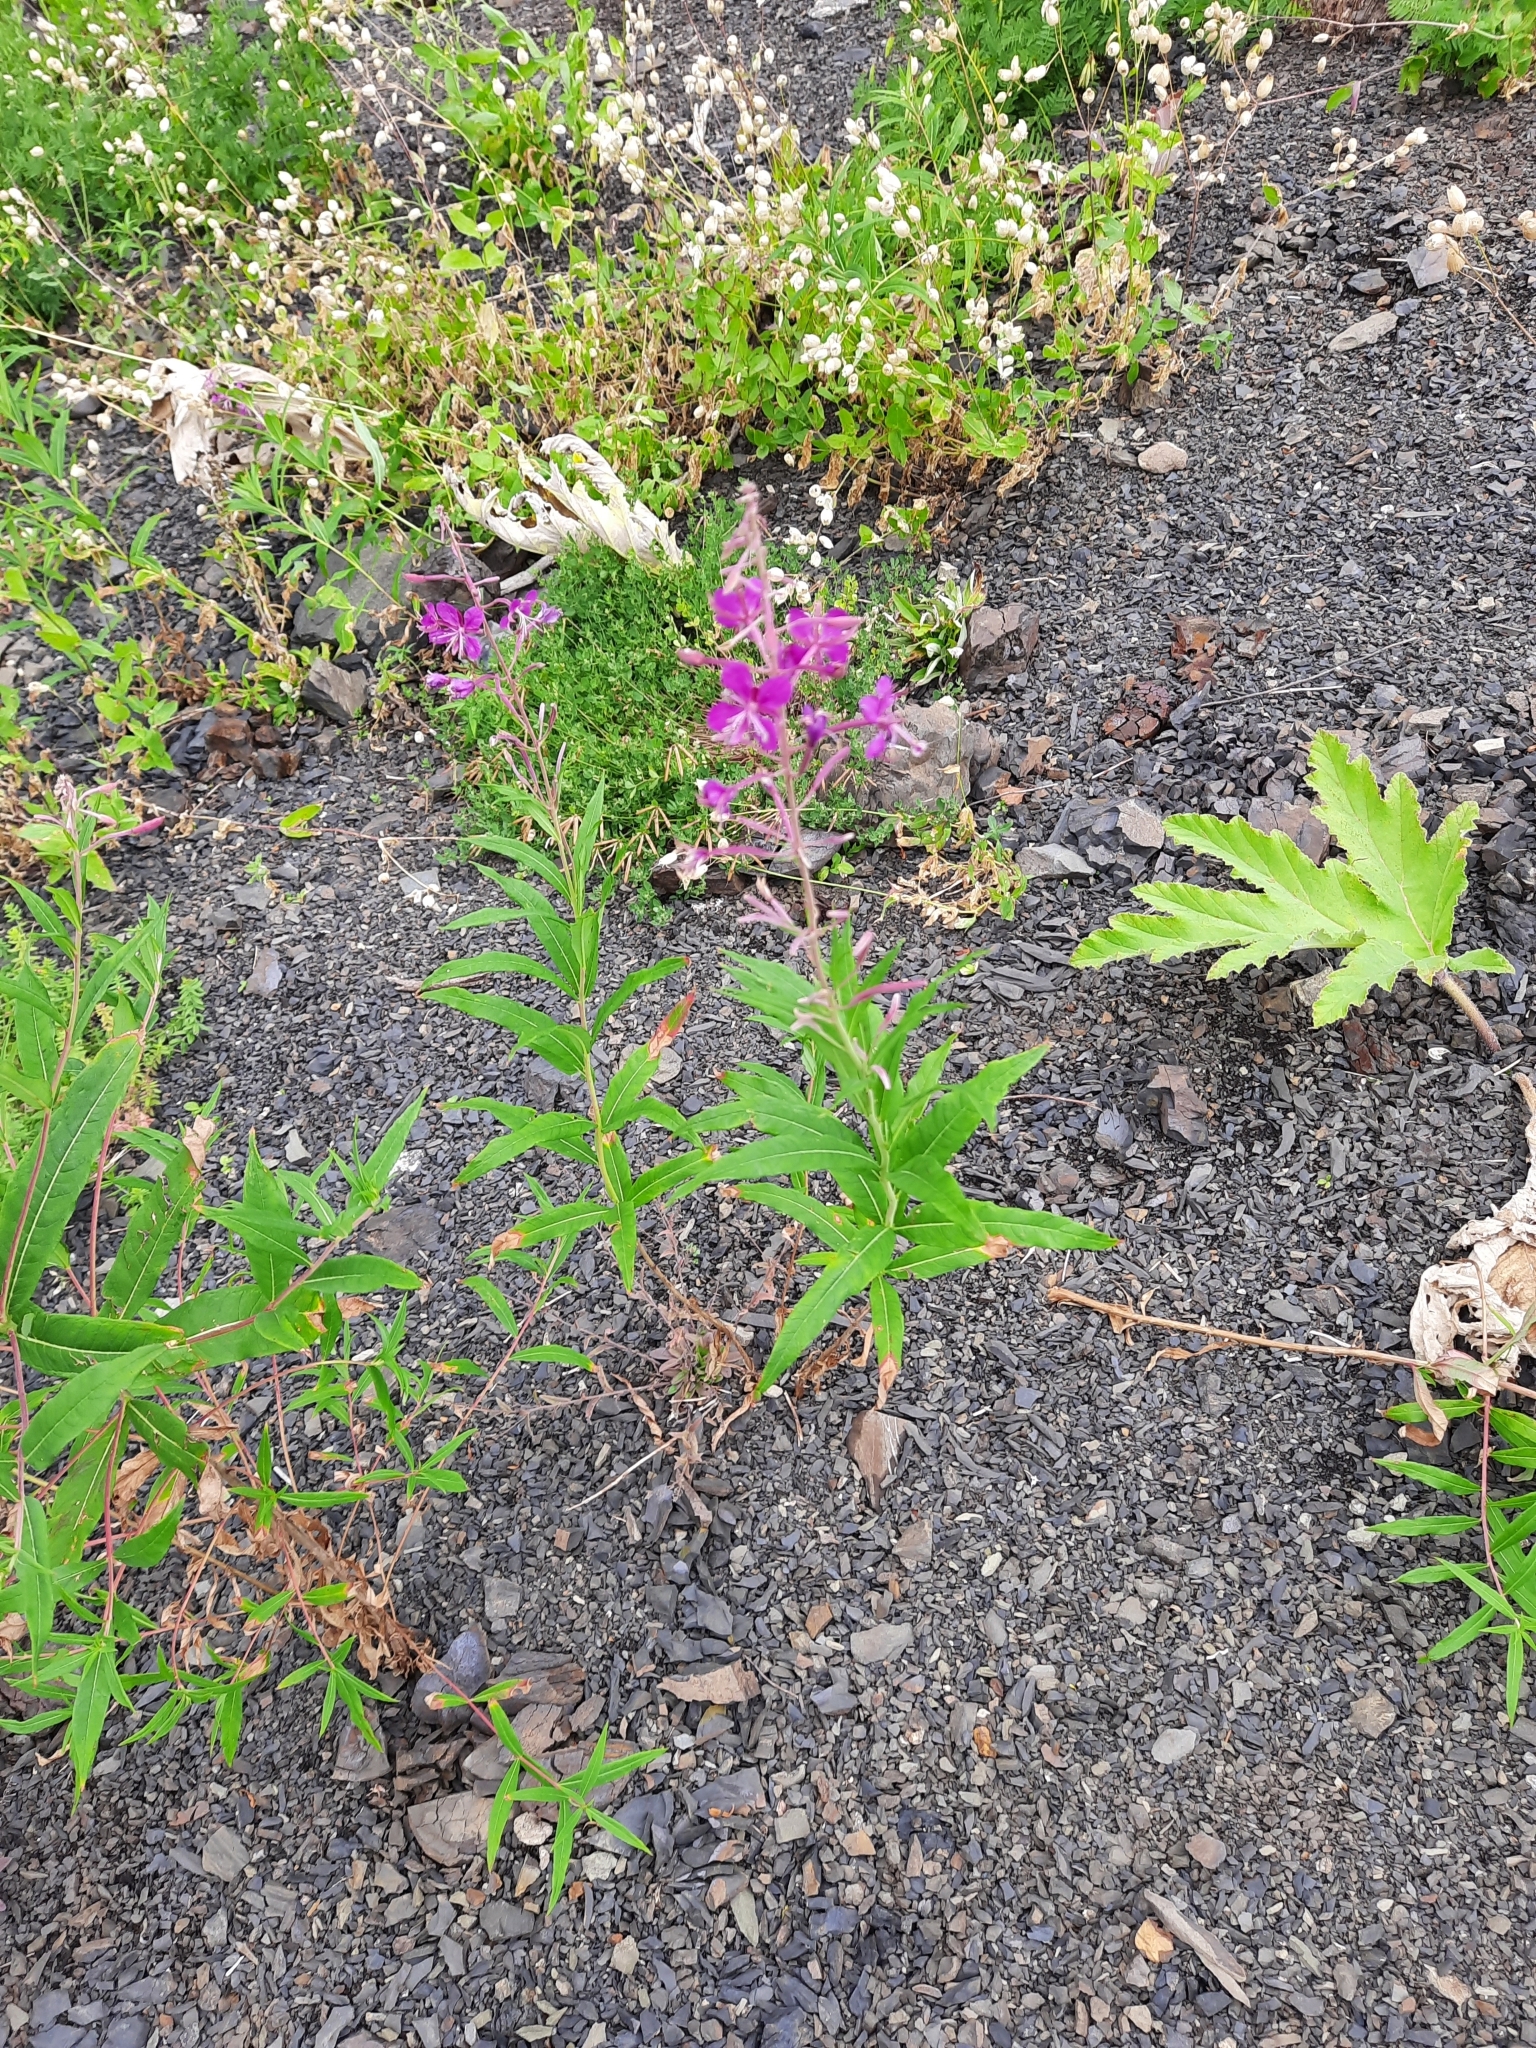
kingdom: Plantae
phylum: Tracheophyta
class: Magnoliopsida
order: Myrtales
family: Onagraceae
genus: Chamaenerion
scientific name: Chamaenerion angustifolium
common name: Fireweed
